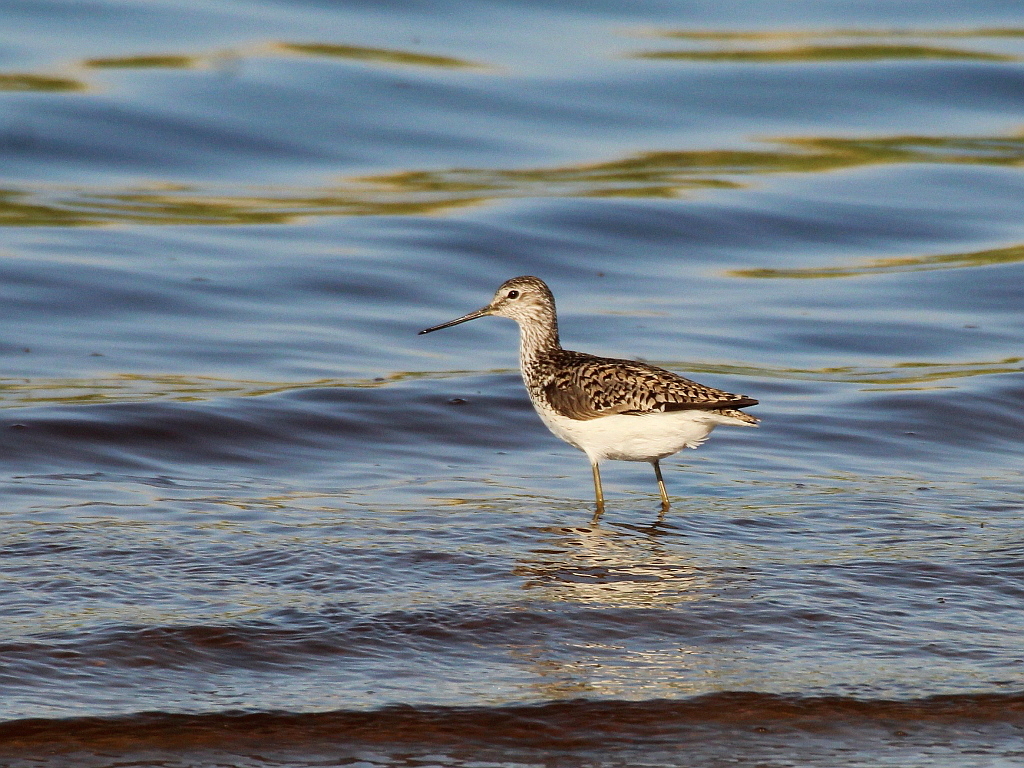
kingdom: Animalia
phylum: Chordata
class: Aves
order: Charadriiformes
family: Scolopacidae
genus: Tringa
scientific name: Tringa stagnatilis
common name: Marsh sandpiper
